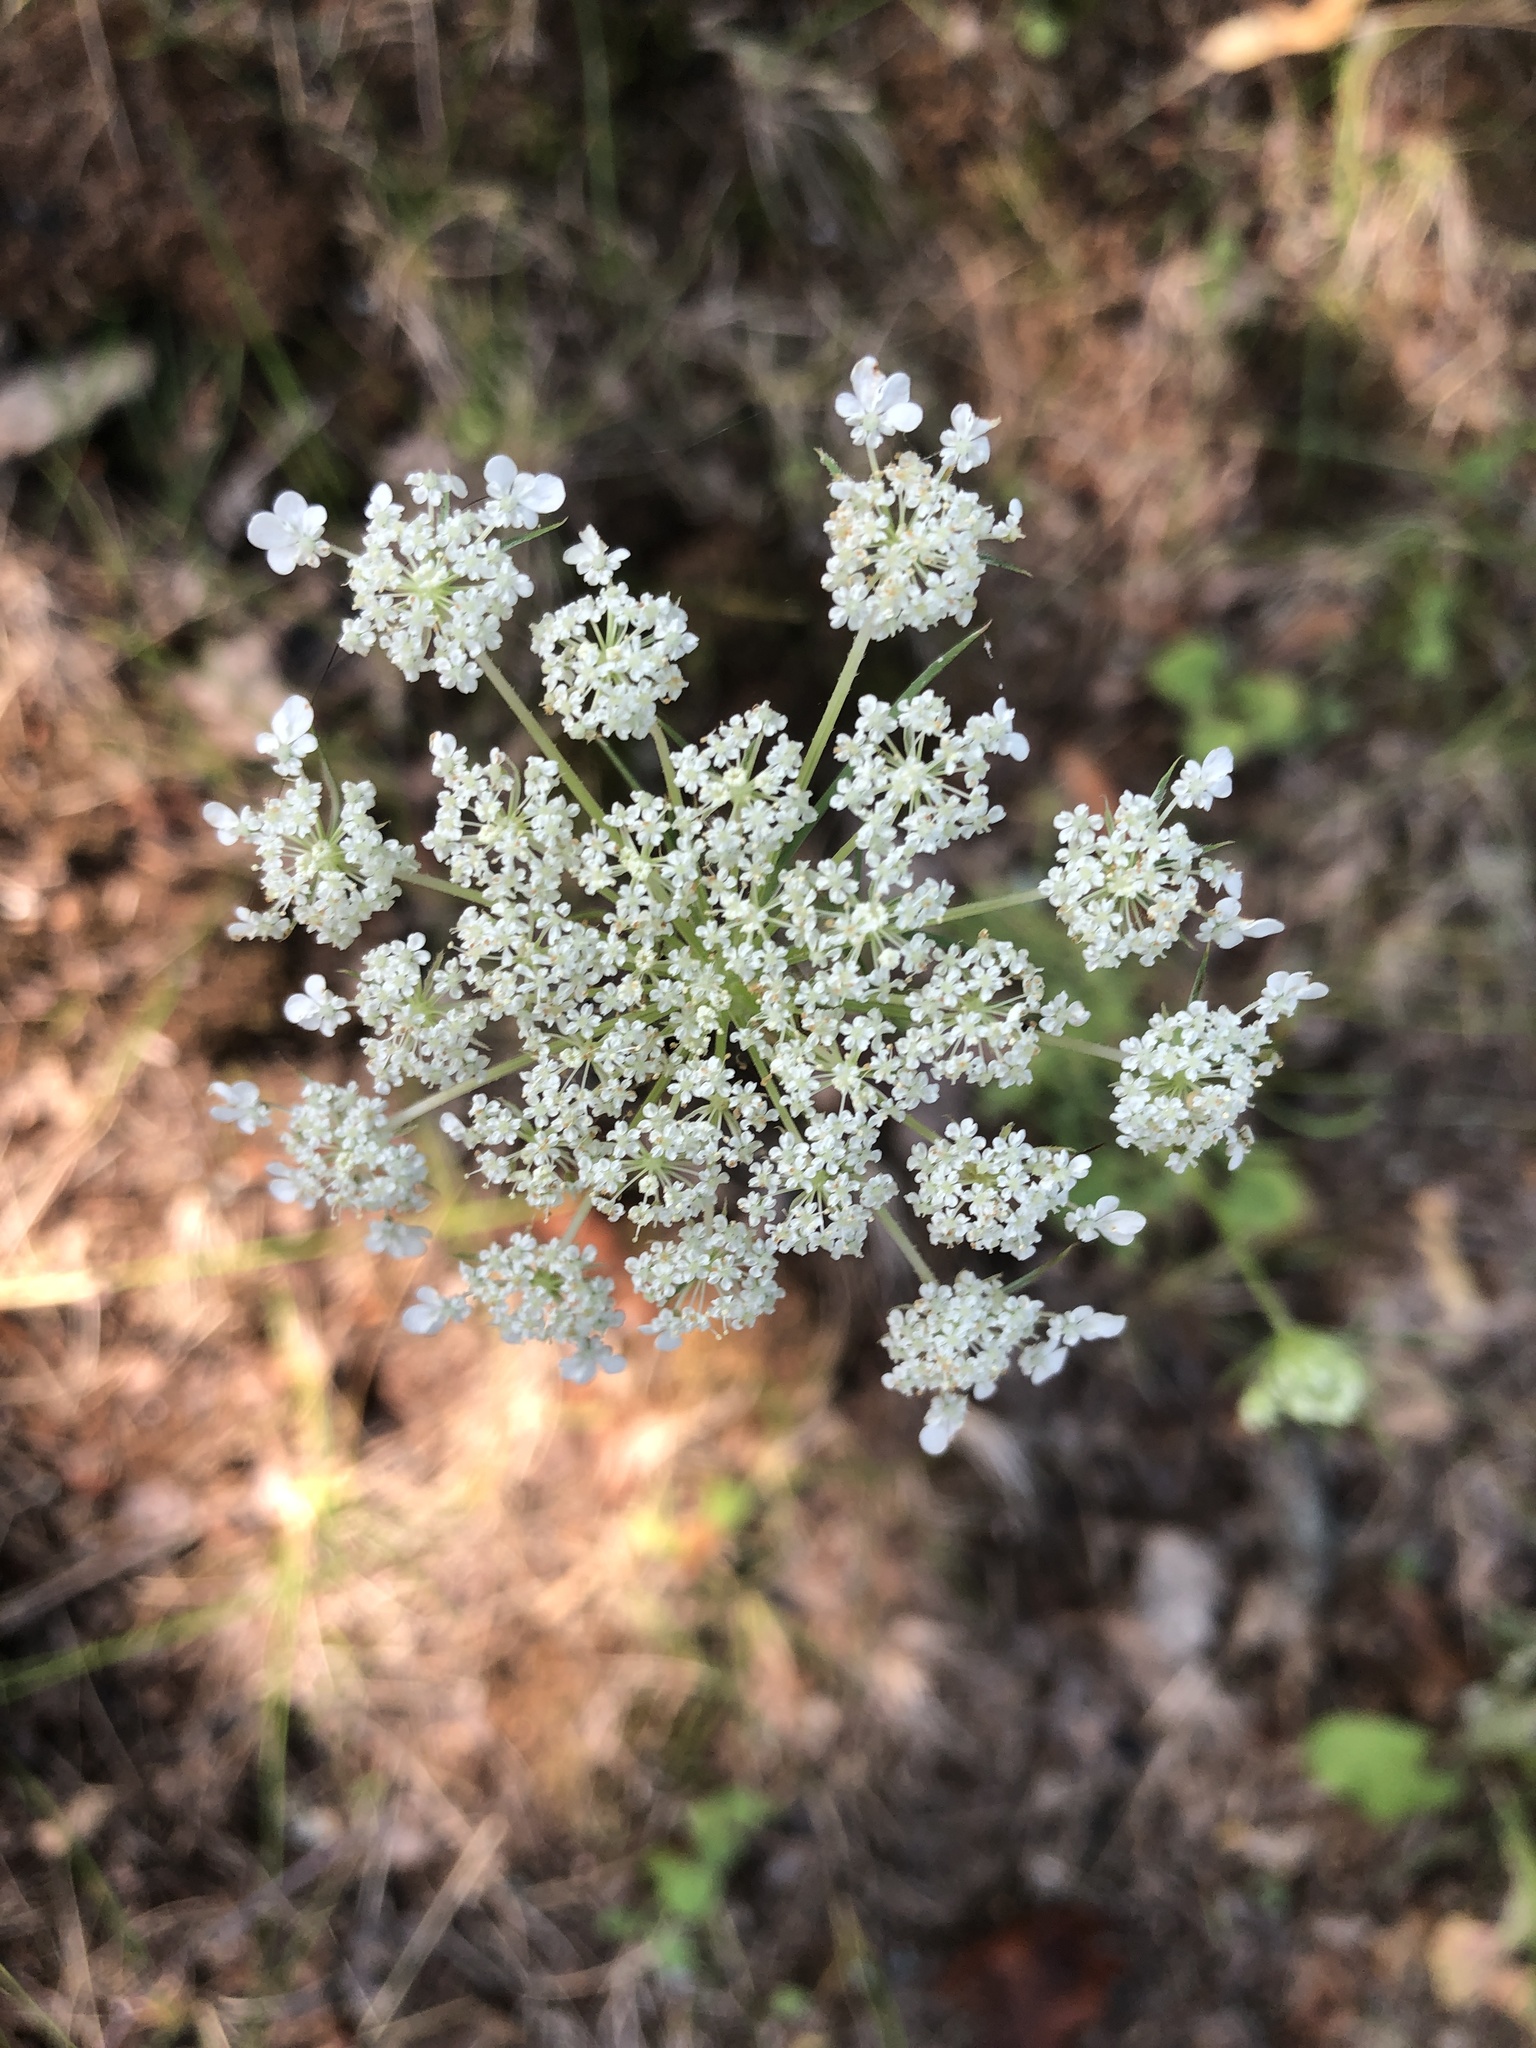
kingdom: Plantae
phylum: Tracheophyta
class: Magnoliopsida
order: Apiales
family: Apiaceae
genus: Daucus
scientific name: Daucus carota
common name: Wild carrot
